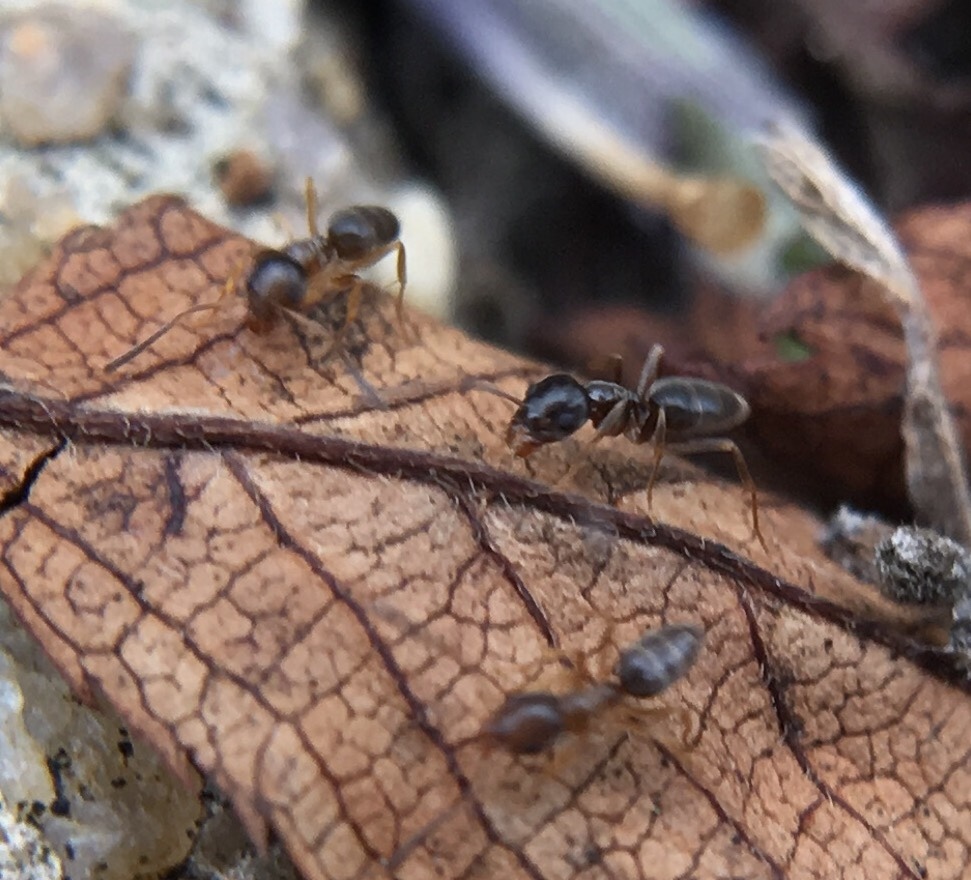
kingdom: Animalia
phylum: Arthropoda
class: Insecta
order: Hymenoptera
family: Formicidae
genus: Tapinoma
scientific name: Tapinoma sessile
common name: Odorous house ant
